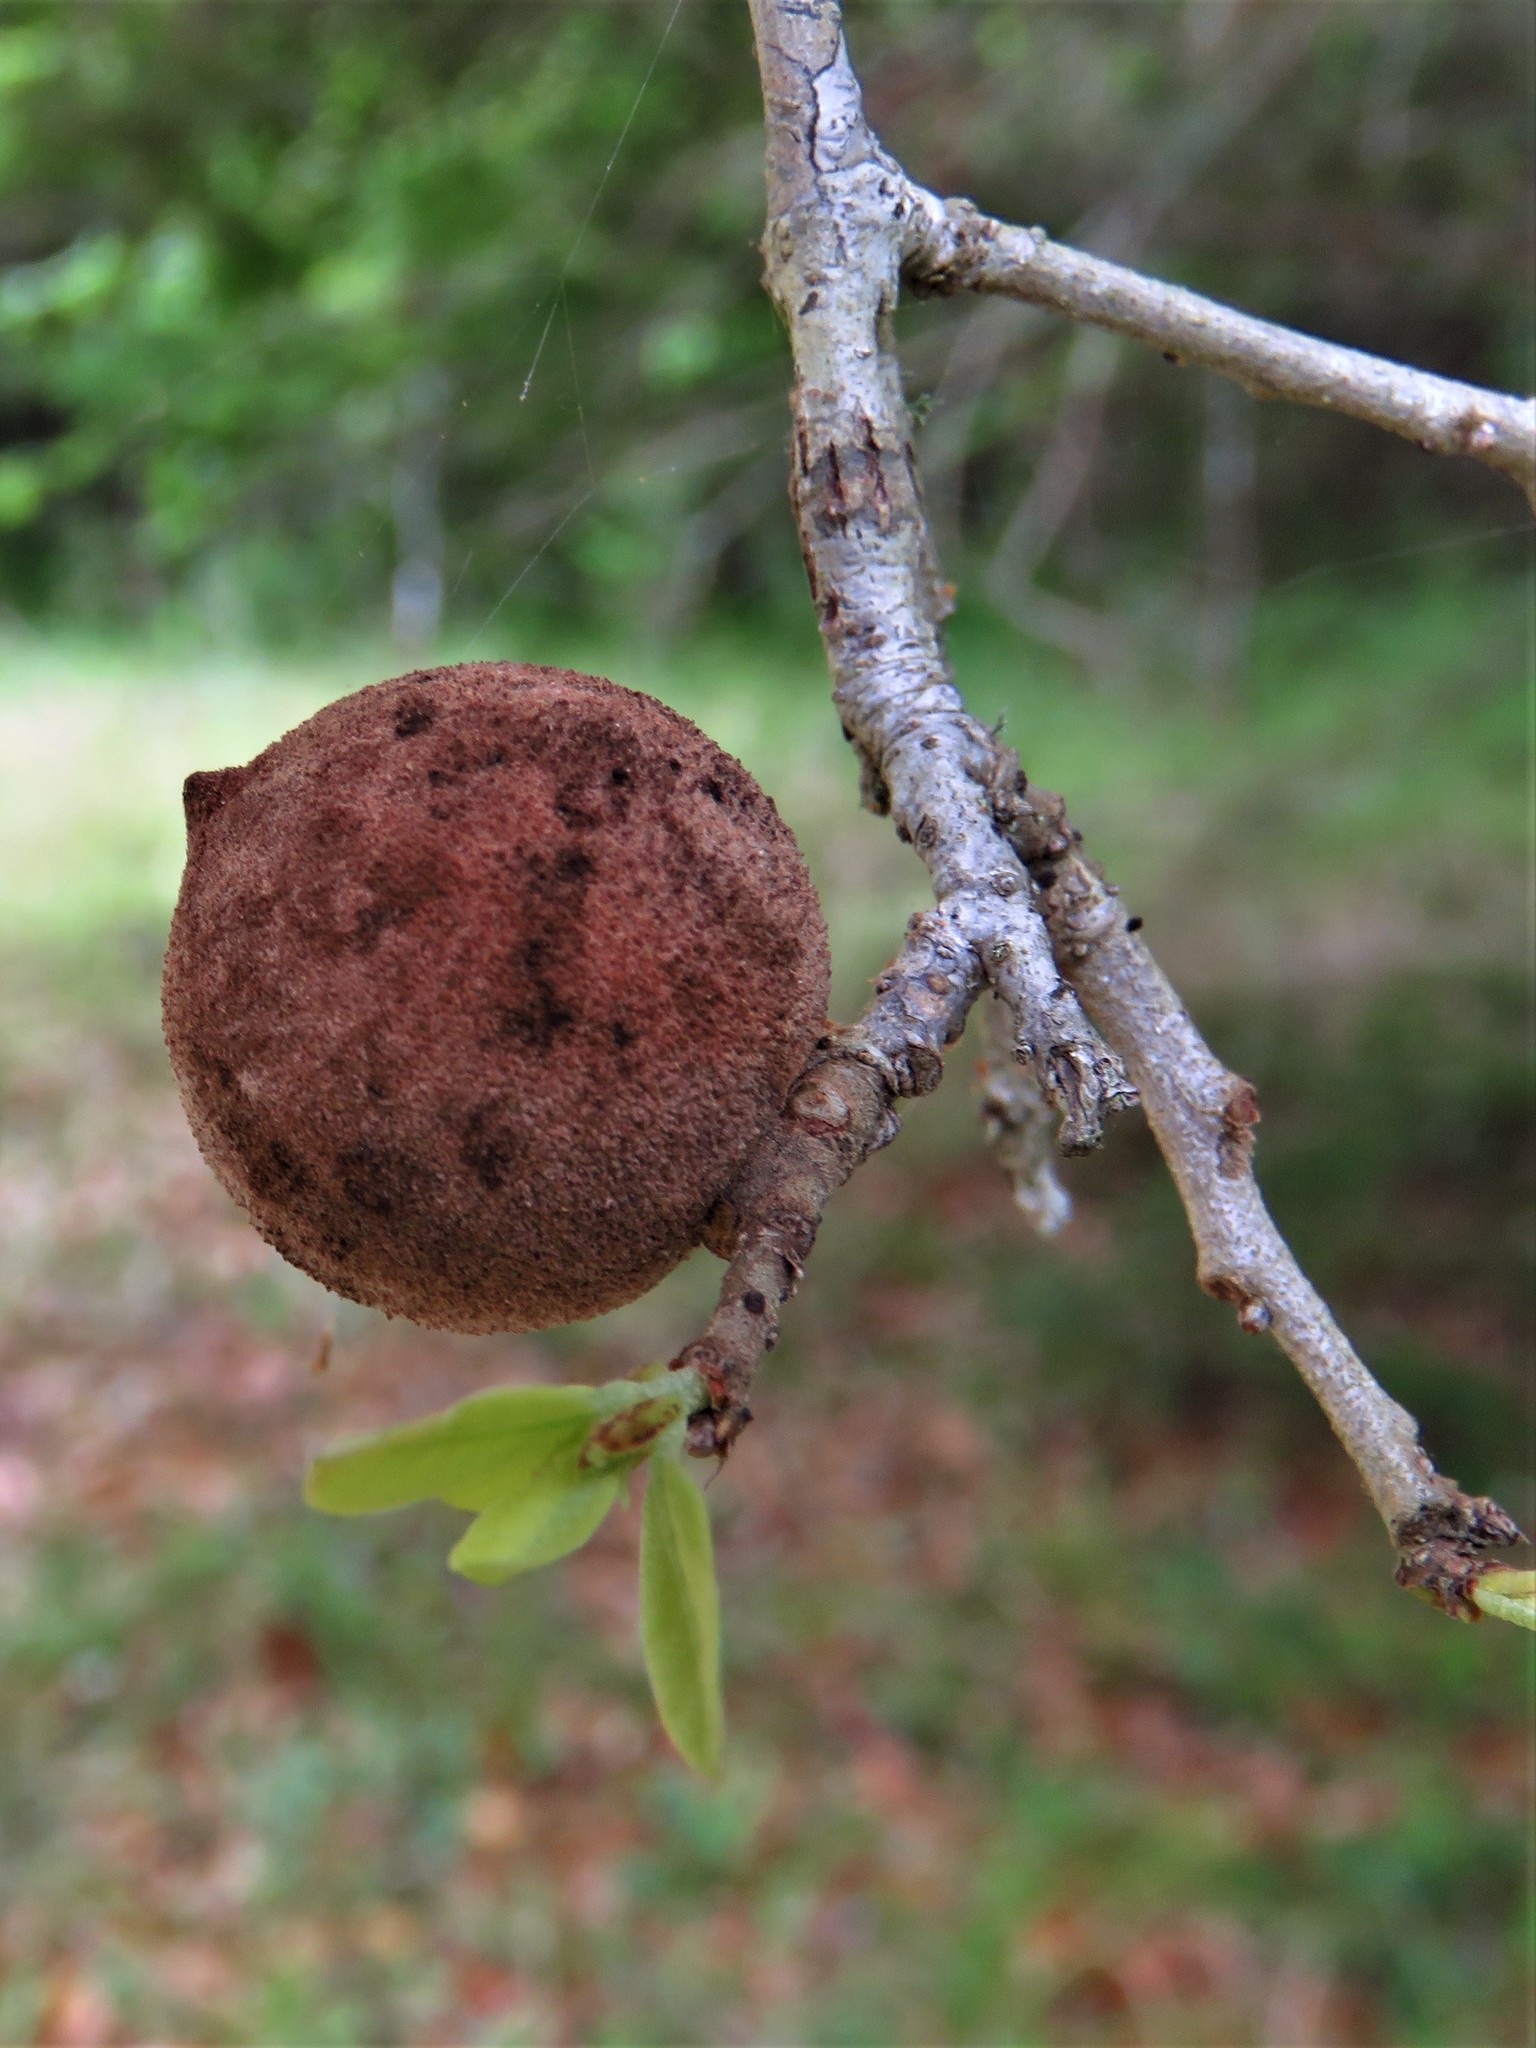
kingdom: Animalia
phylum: Arthropoda
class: Insecta
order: Hymenoptera
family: Cynipidae
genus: Disholcaspis
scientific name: Disholcaspis
